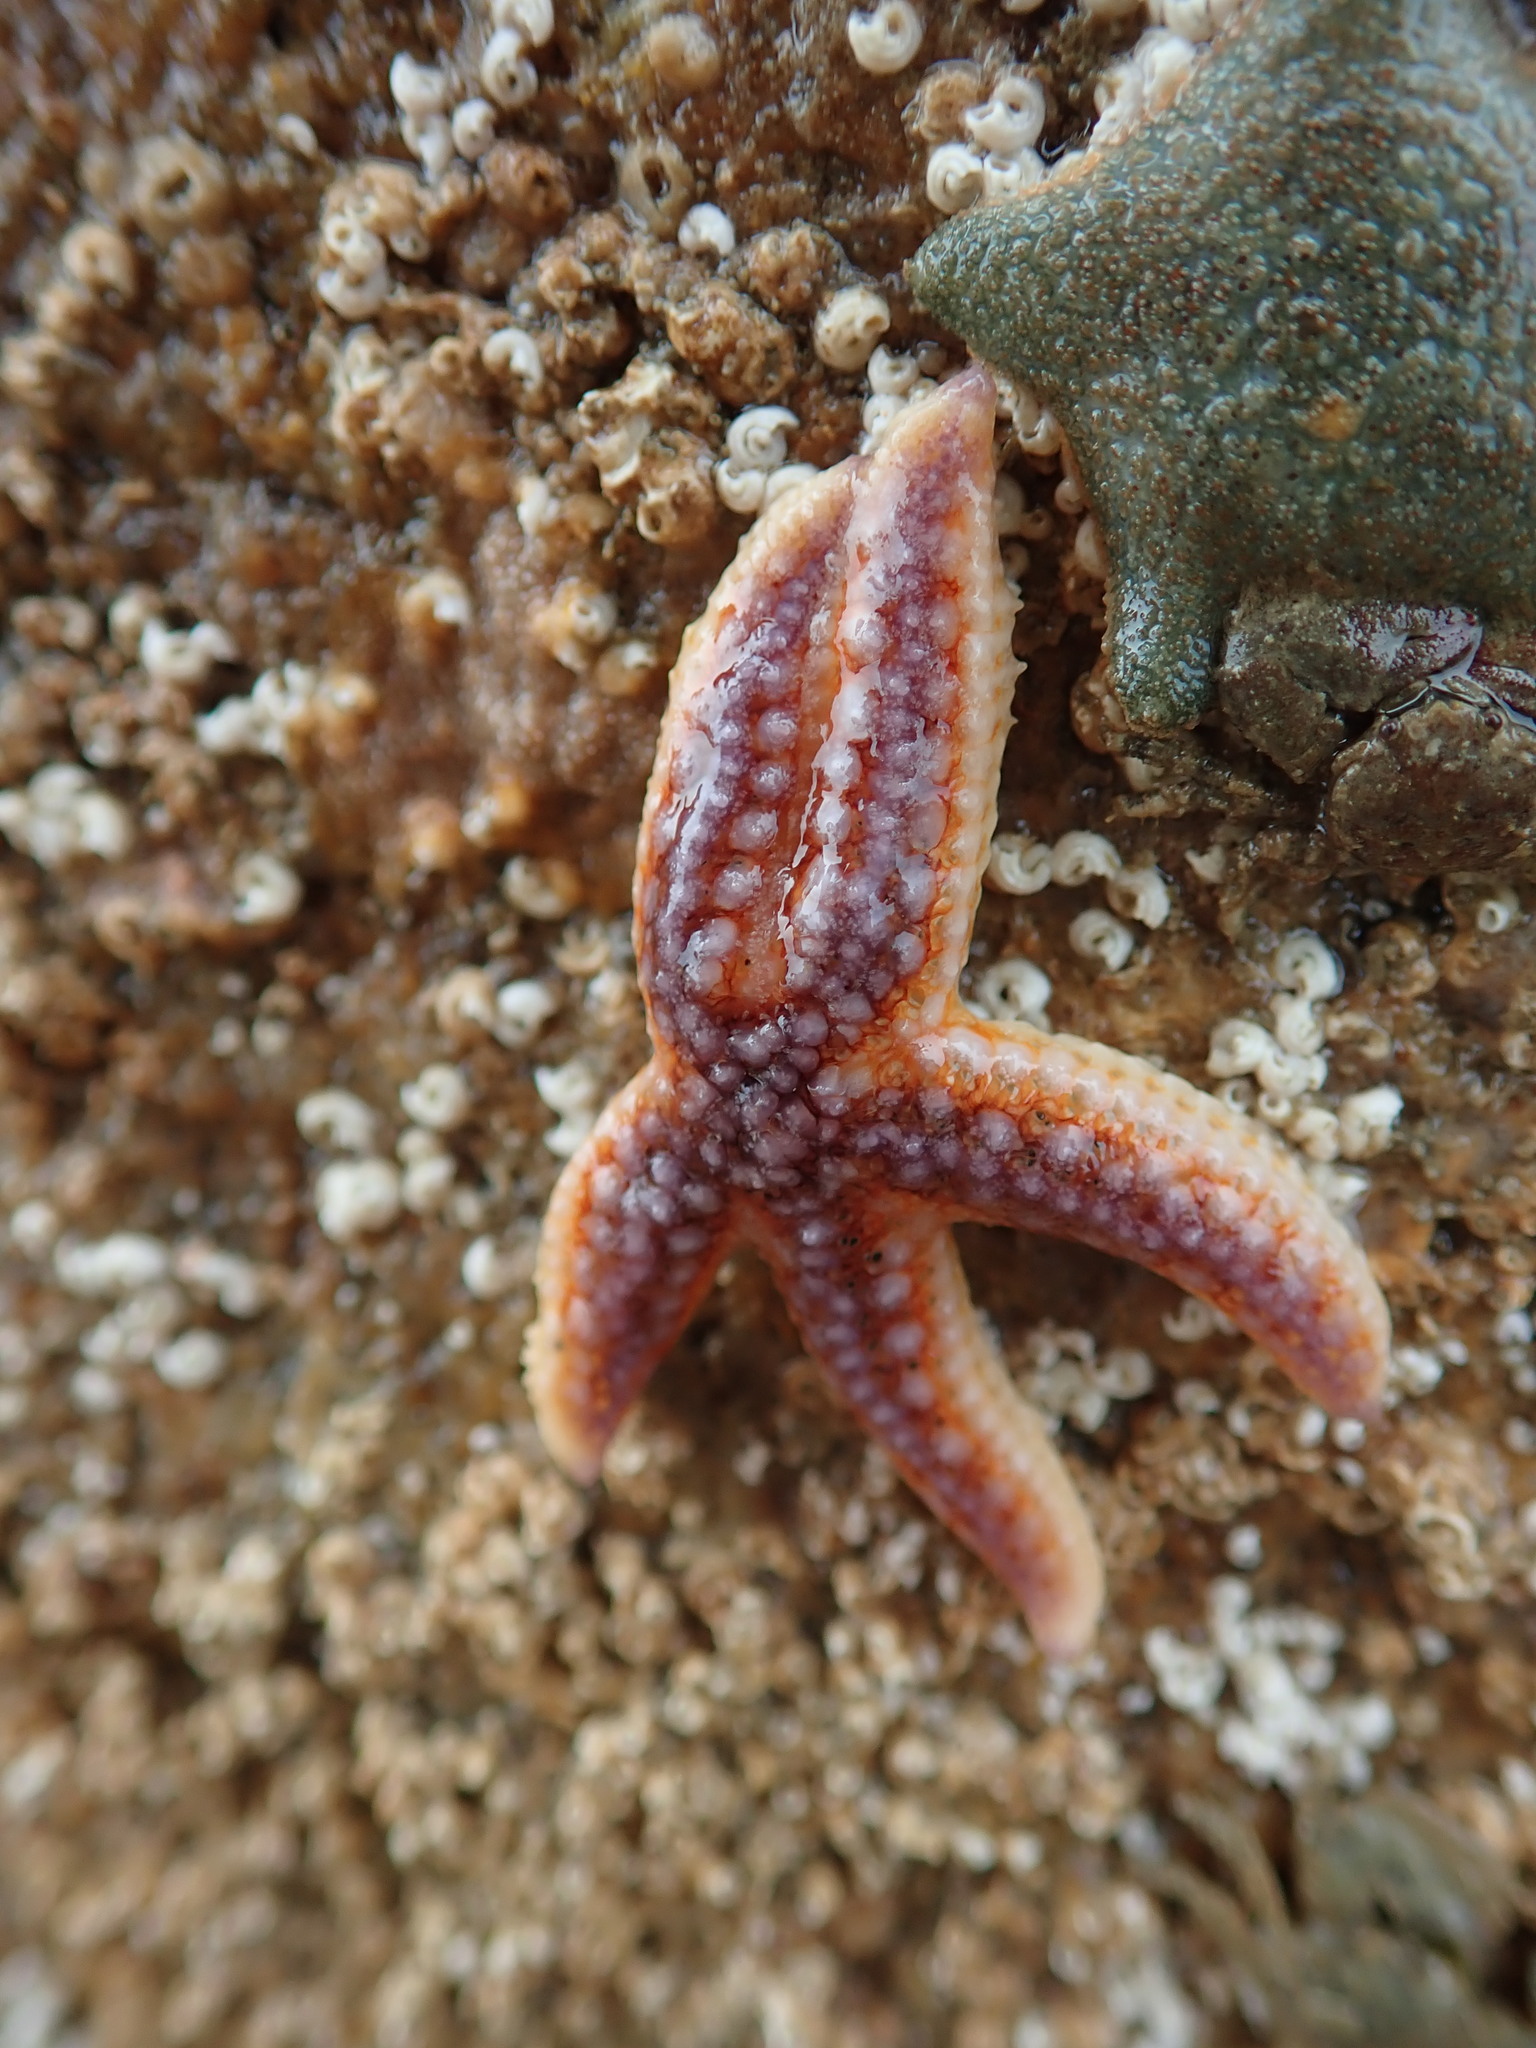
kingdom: Animalia
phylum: Echinodermata
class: Asteroidea
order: Forcipulatida
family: Asteriidae
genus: Asterias
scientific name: Asterias rubens
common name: Common starfish
